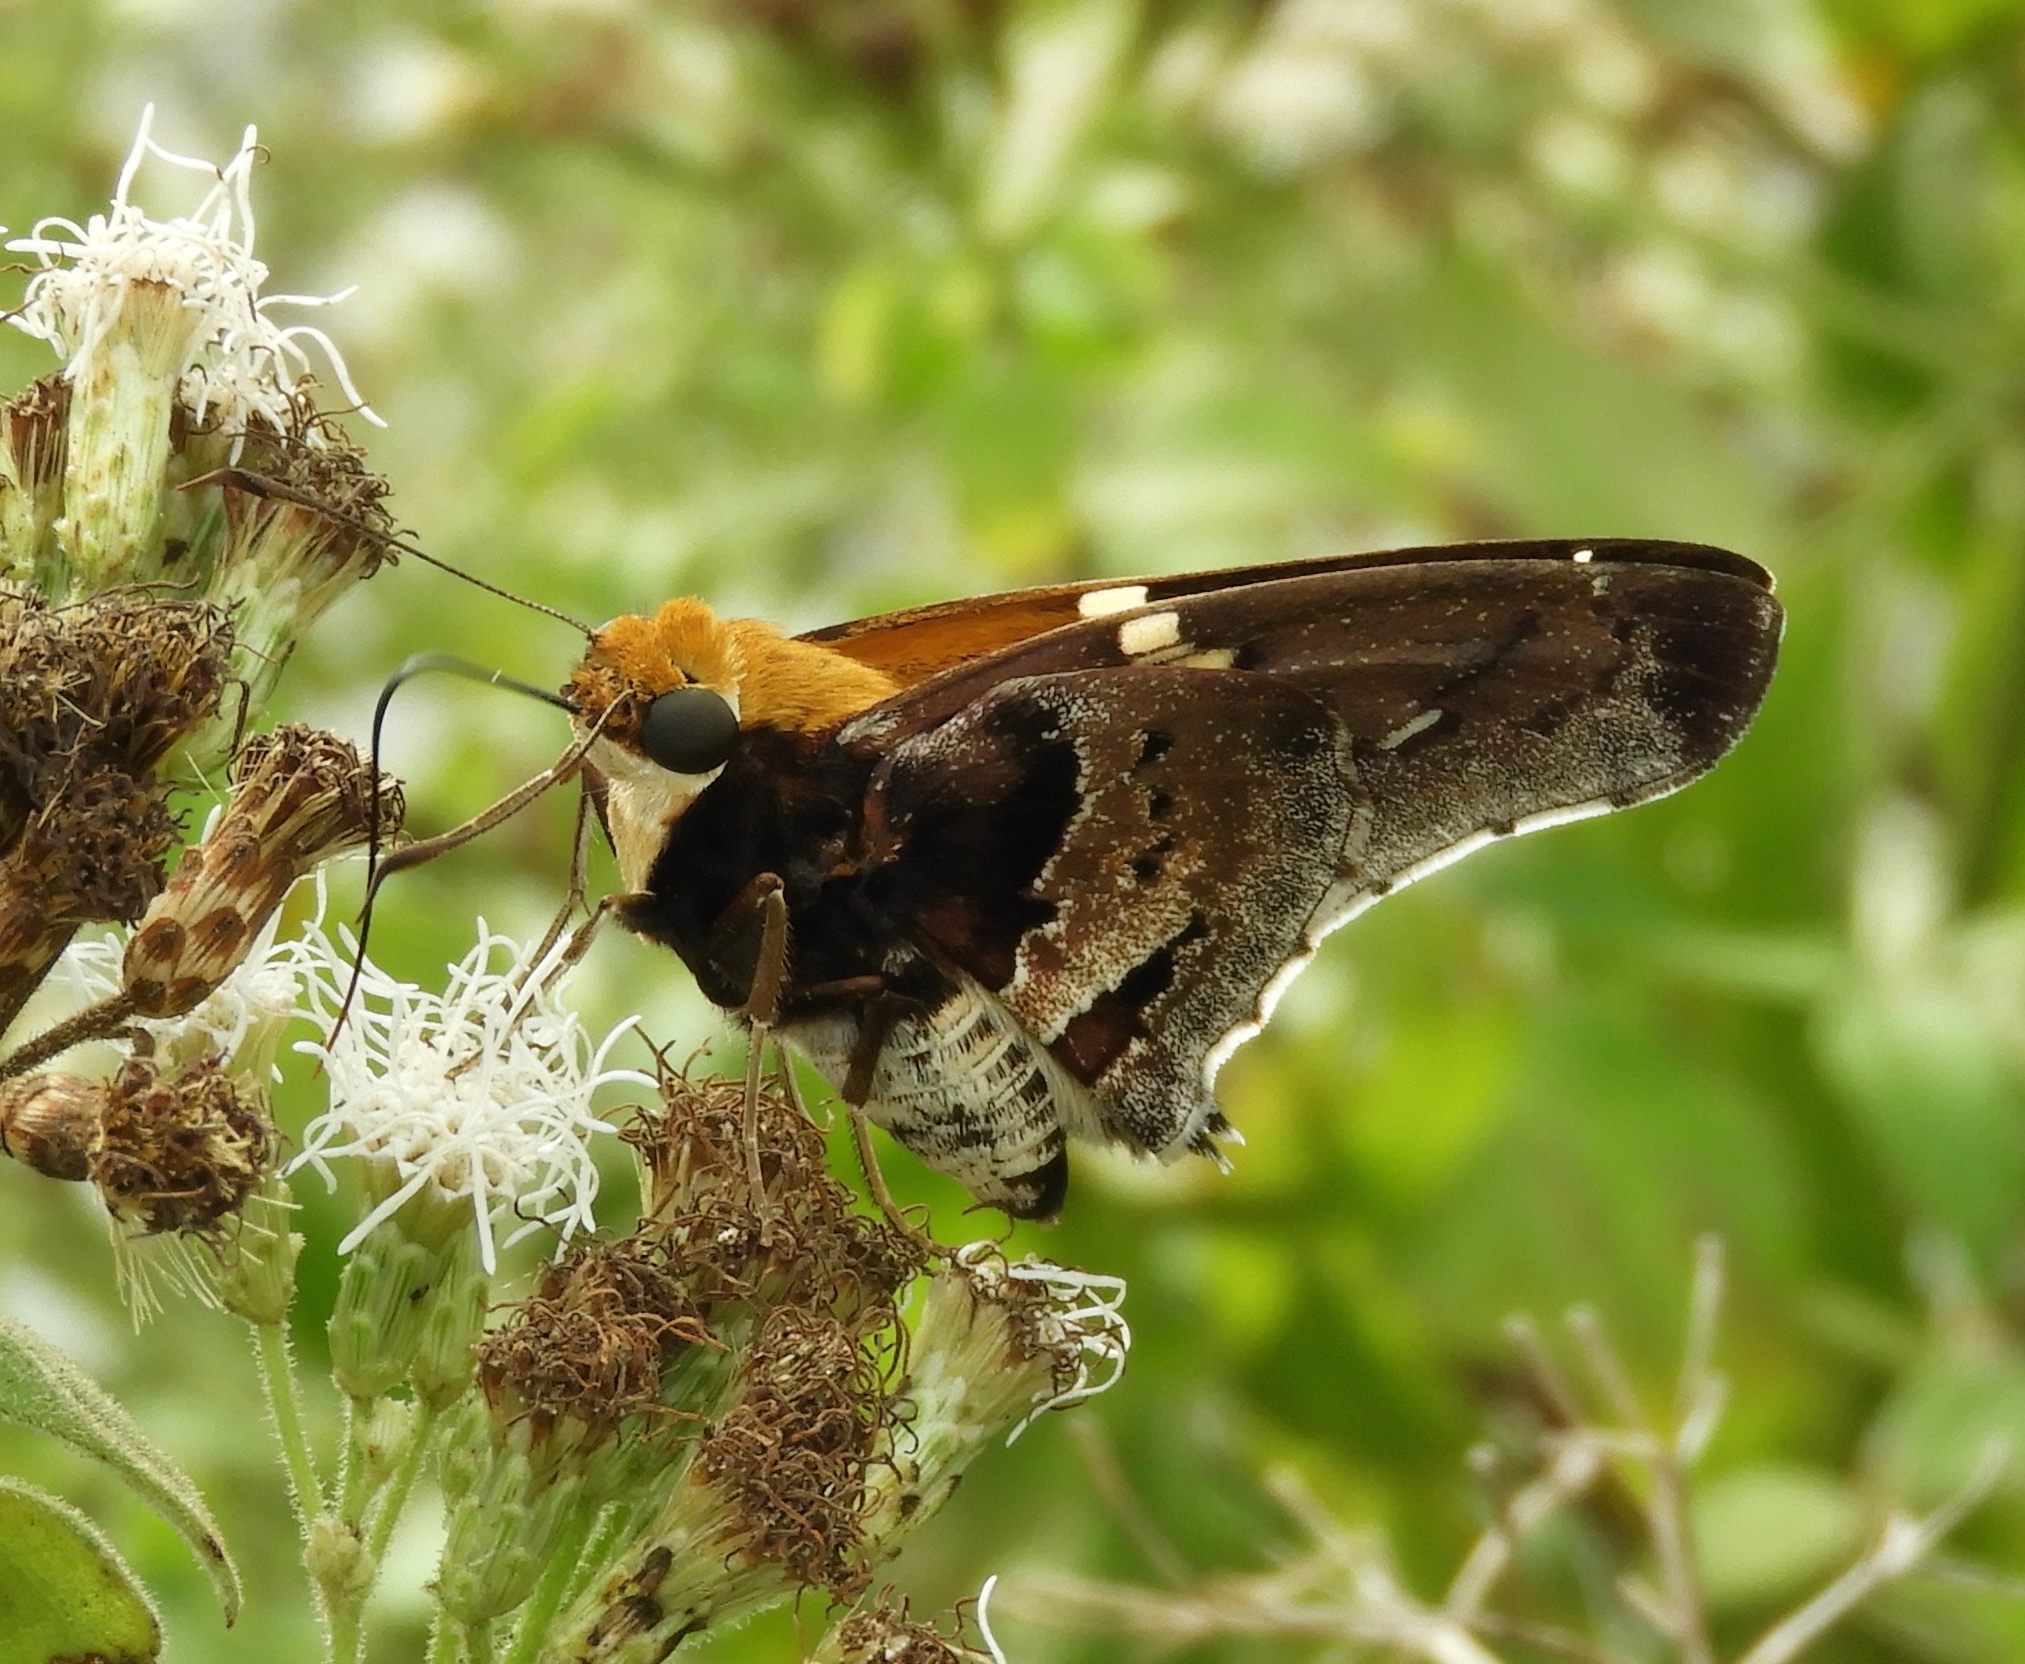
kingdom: Animalia
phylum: Arthropoda
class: Insecta
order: Lepidoptera
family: Hesperiidae
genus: Proteides
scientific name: Proteides mercurius
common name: Mercurial skipper
